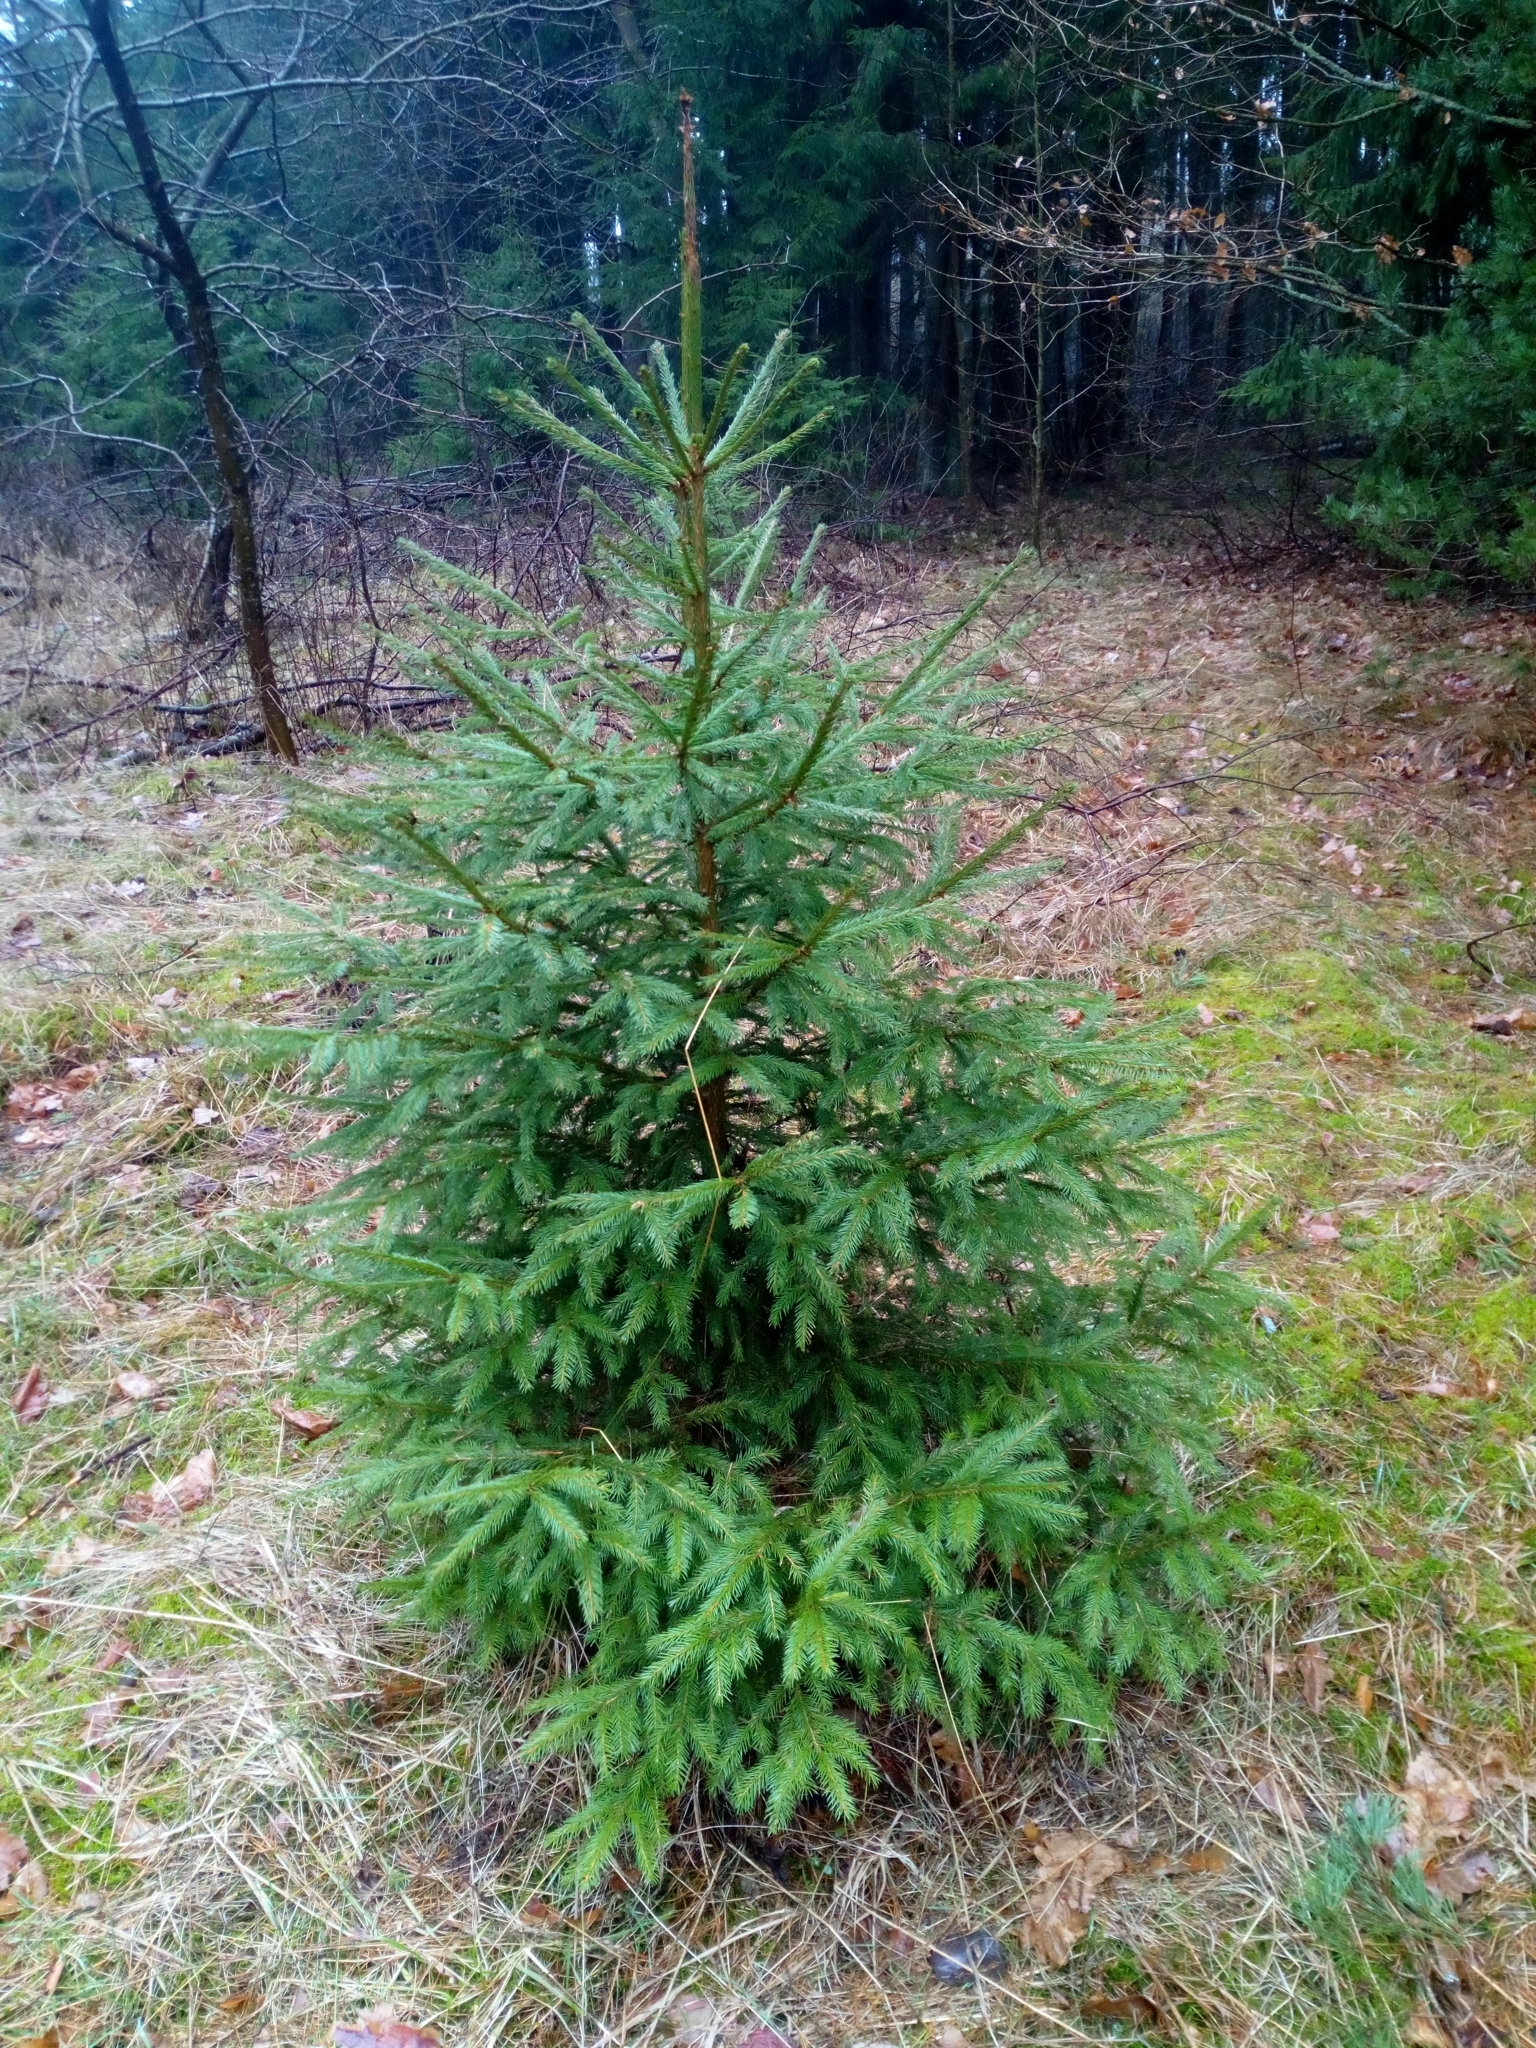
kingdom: Plantae
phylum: Tracheophyta
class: Pinopsida
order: Pinales
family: Pinaceae
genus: Picea
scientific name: Picea abies
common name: Norway spruce
